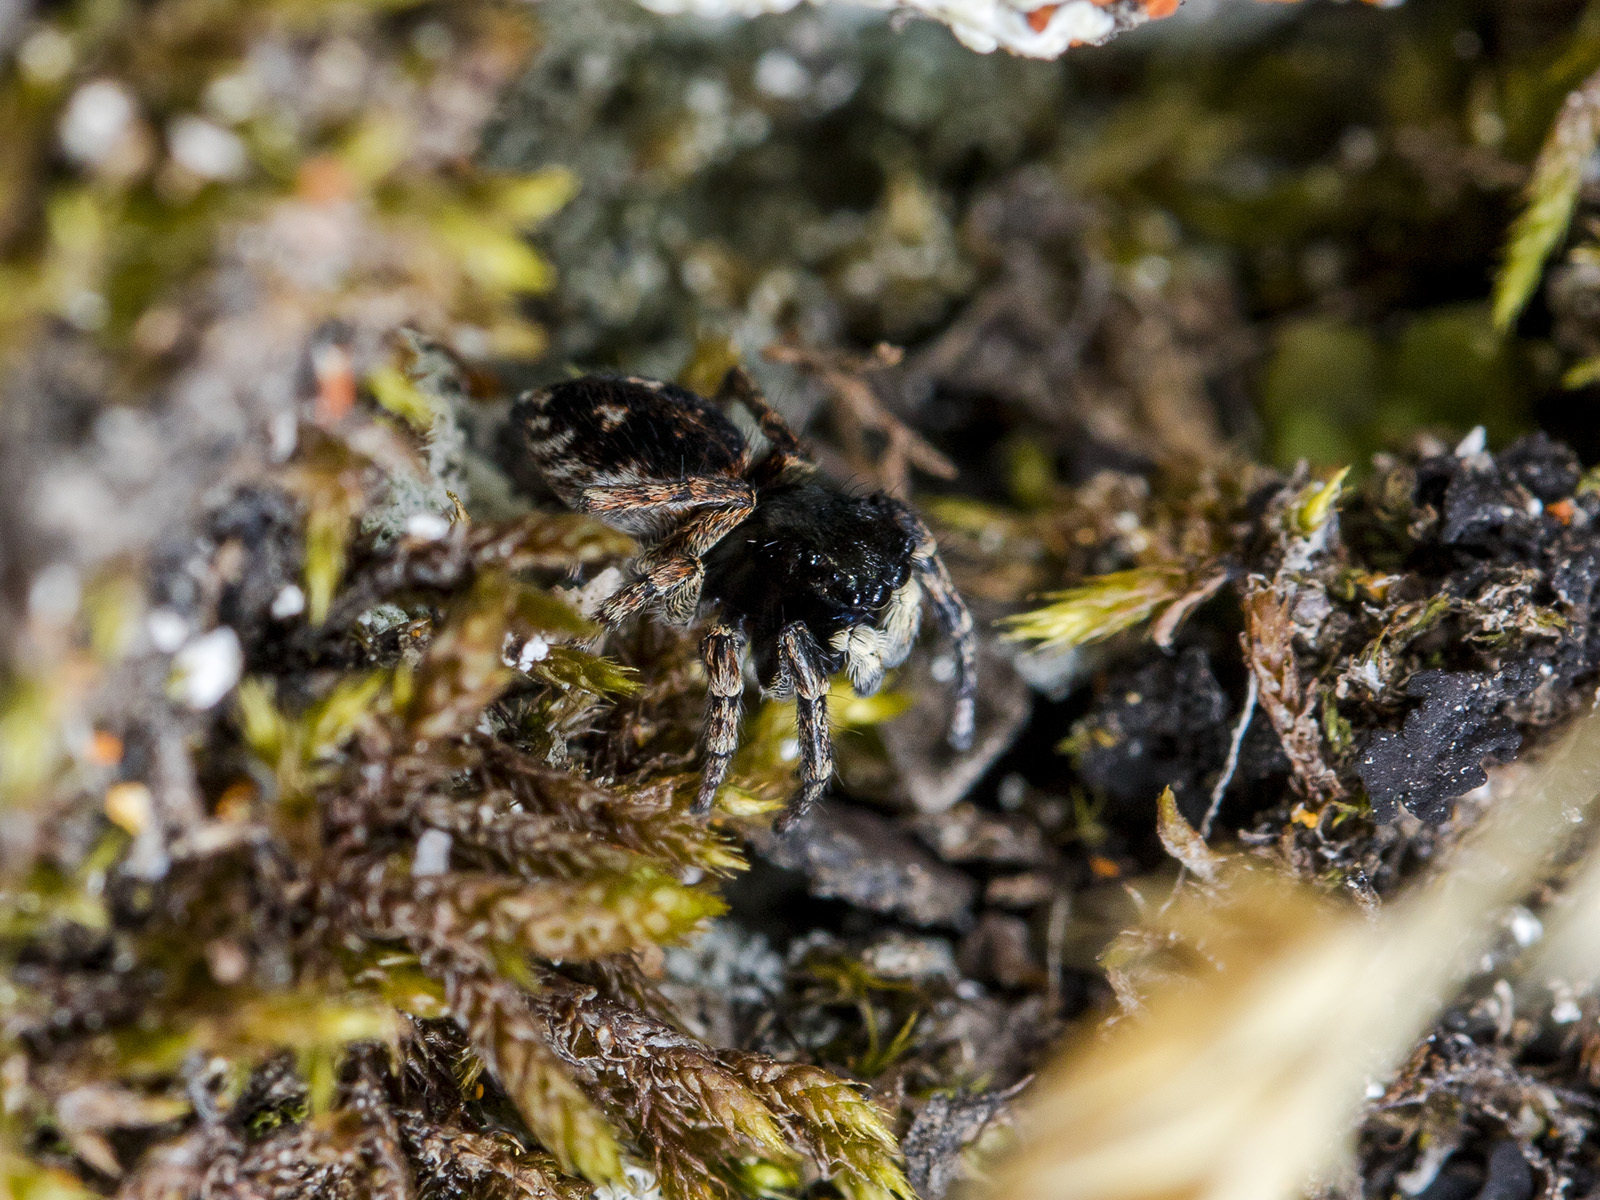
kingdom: Animalia
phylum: Arthropoda
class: Arachnida
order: Araneae
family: Salticidae
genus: Attulus
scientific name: Attulus mirandus
